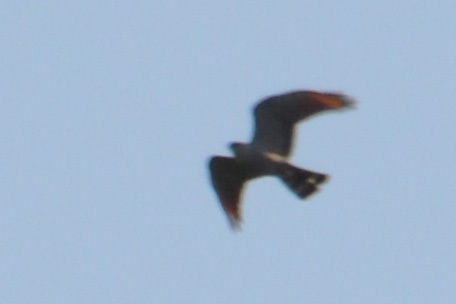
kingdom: Animalia
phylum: Chordata
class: Aves
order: Accipitriformes
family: Accipitridae
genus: Ictinia
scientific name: Ictinia plumbea
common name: Plumbeous kite
